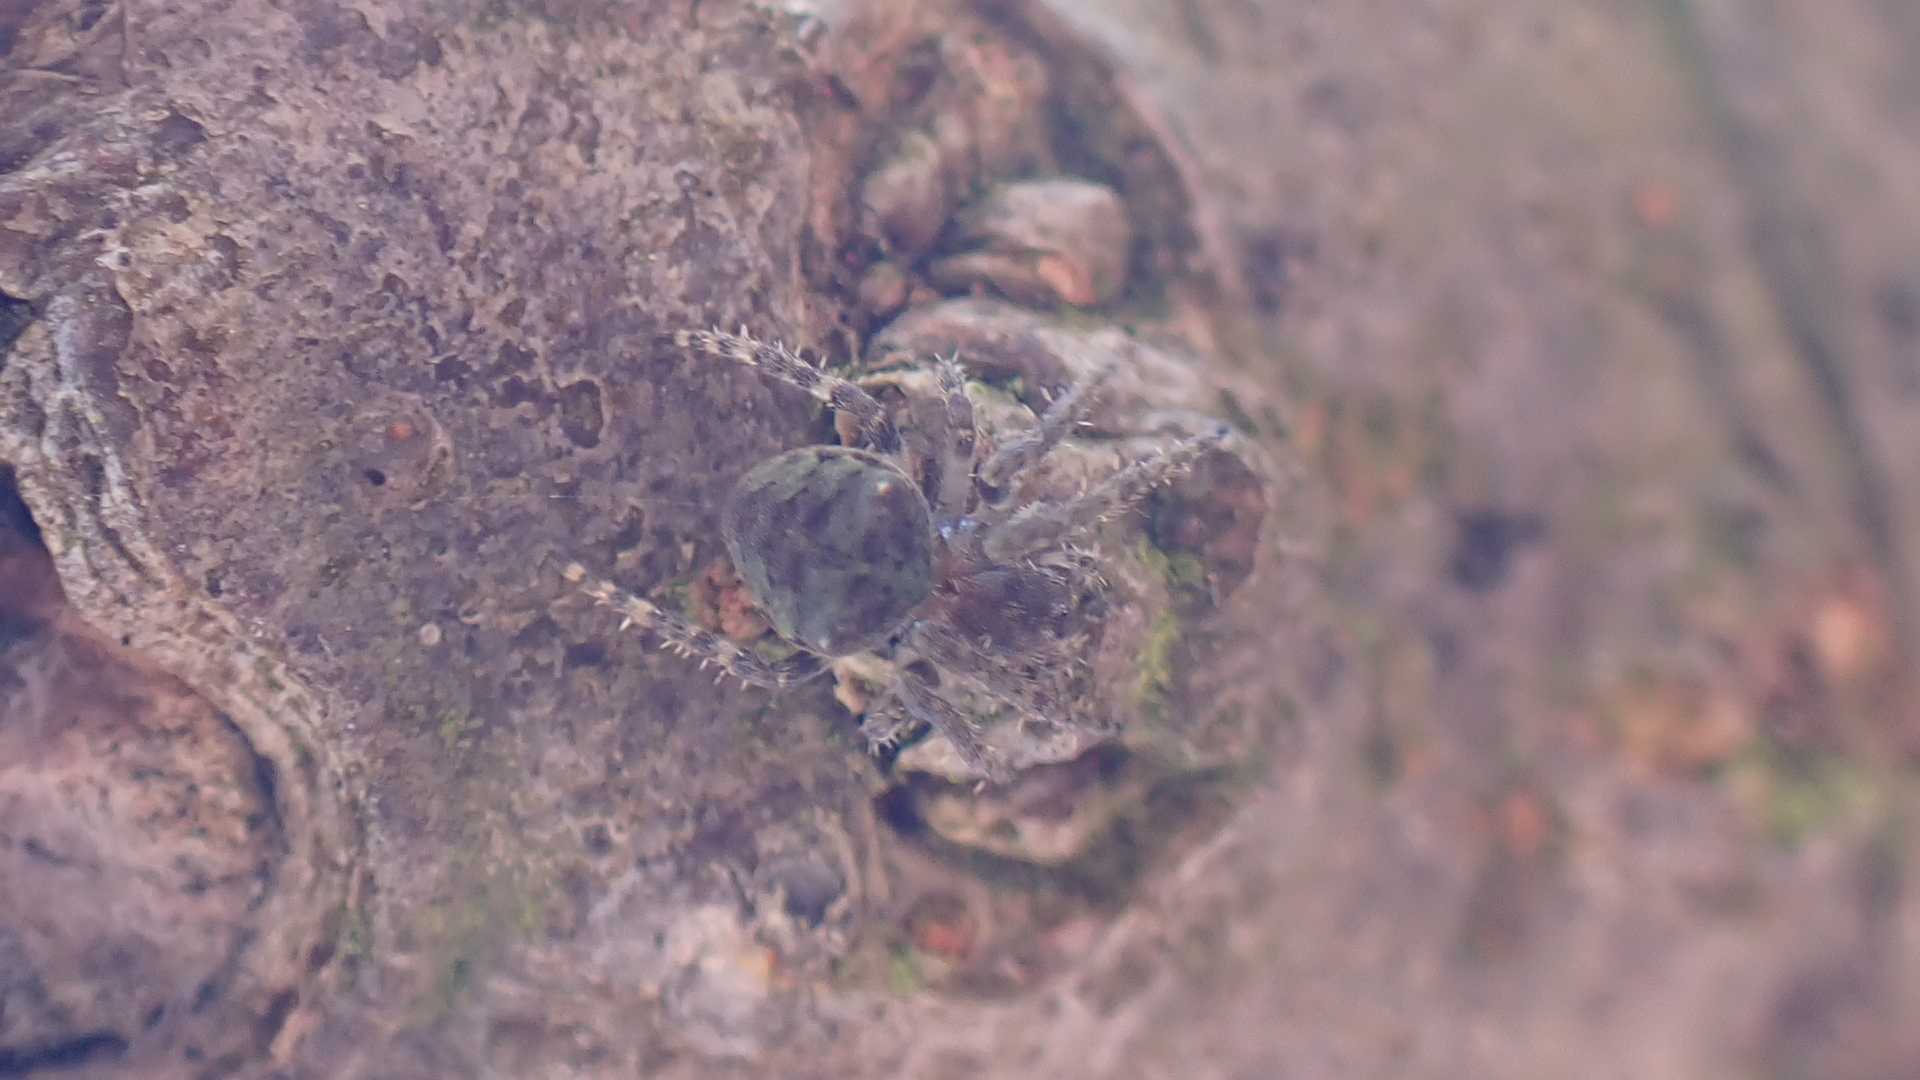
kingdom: Animalia
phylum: Arthropoda
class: Arachnida
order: Araneae
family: Araneidae
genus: Gibbaranea
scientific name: Gibbaranea gibbosa
